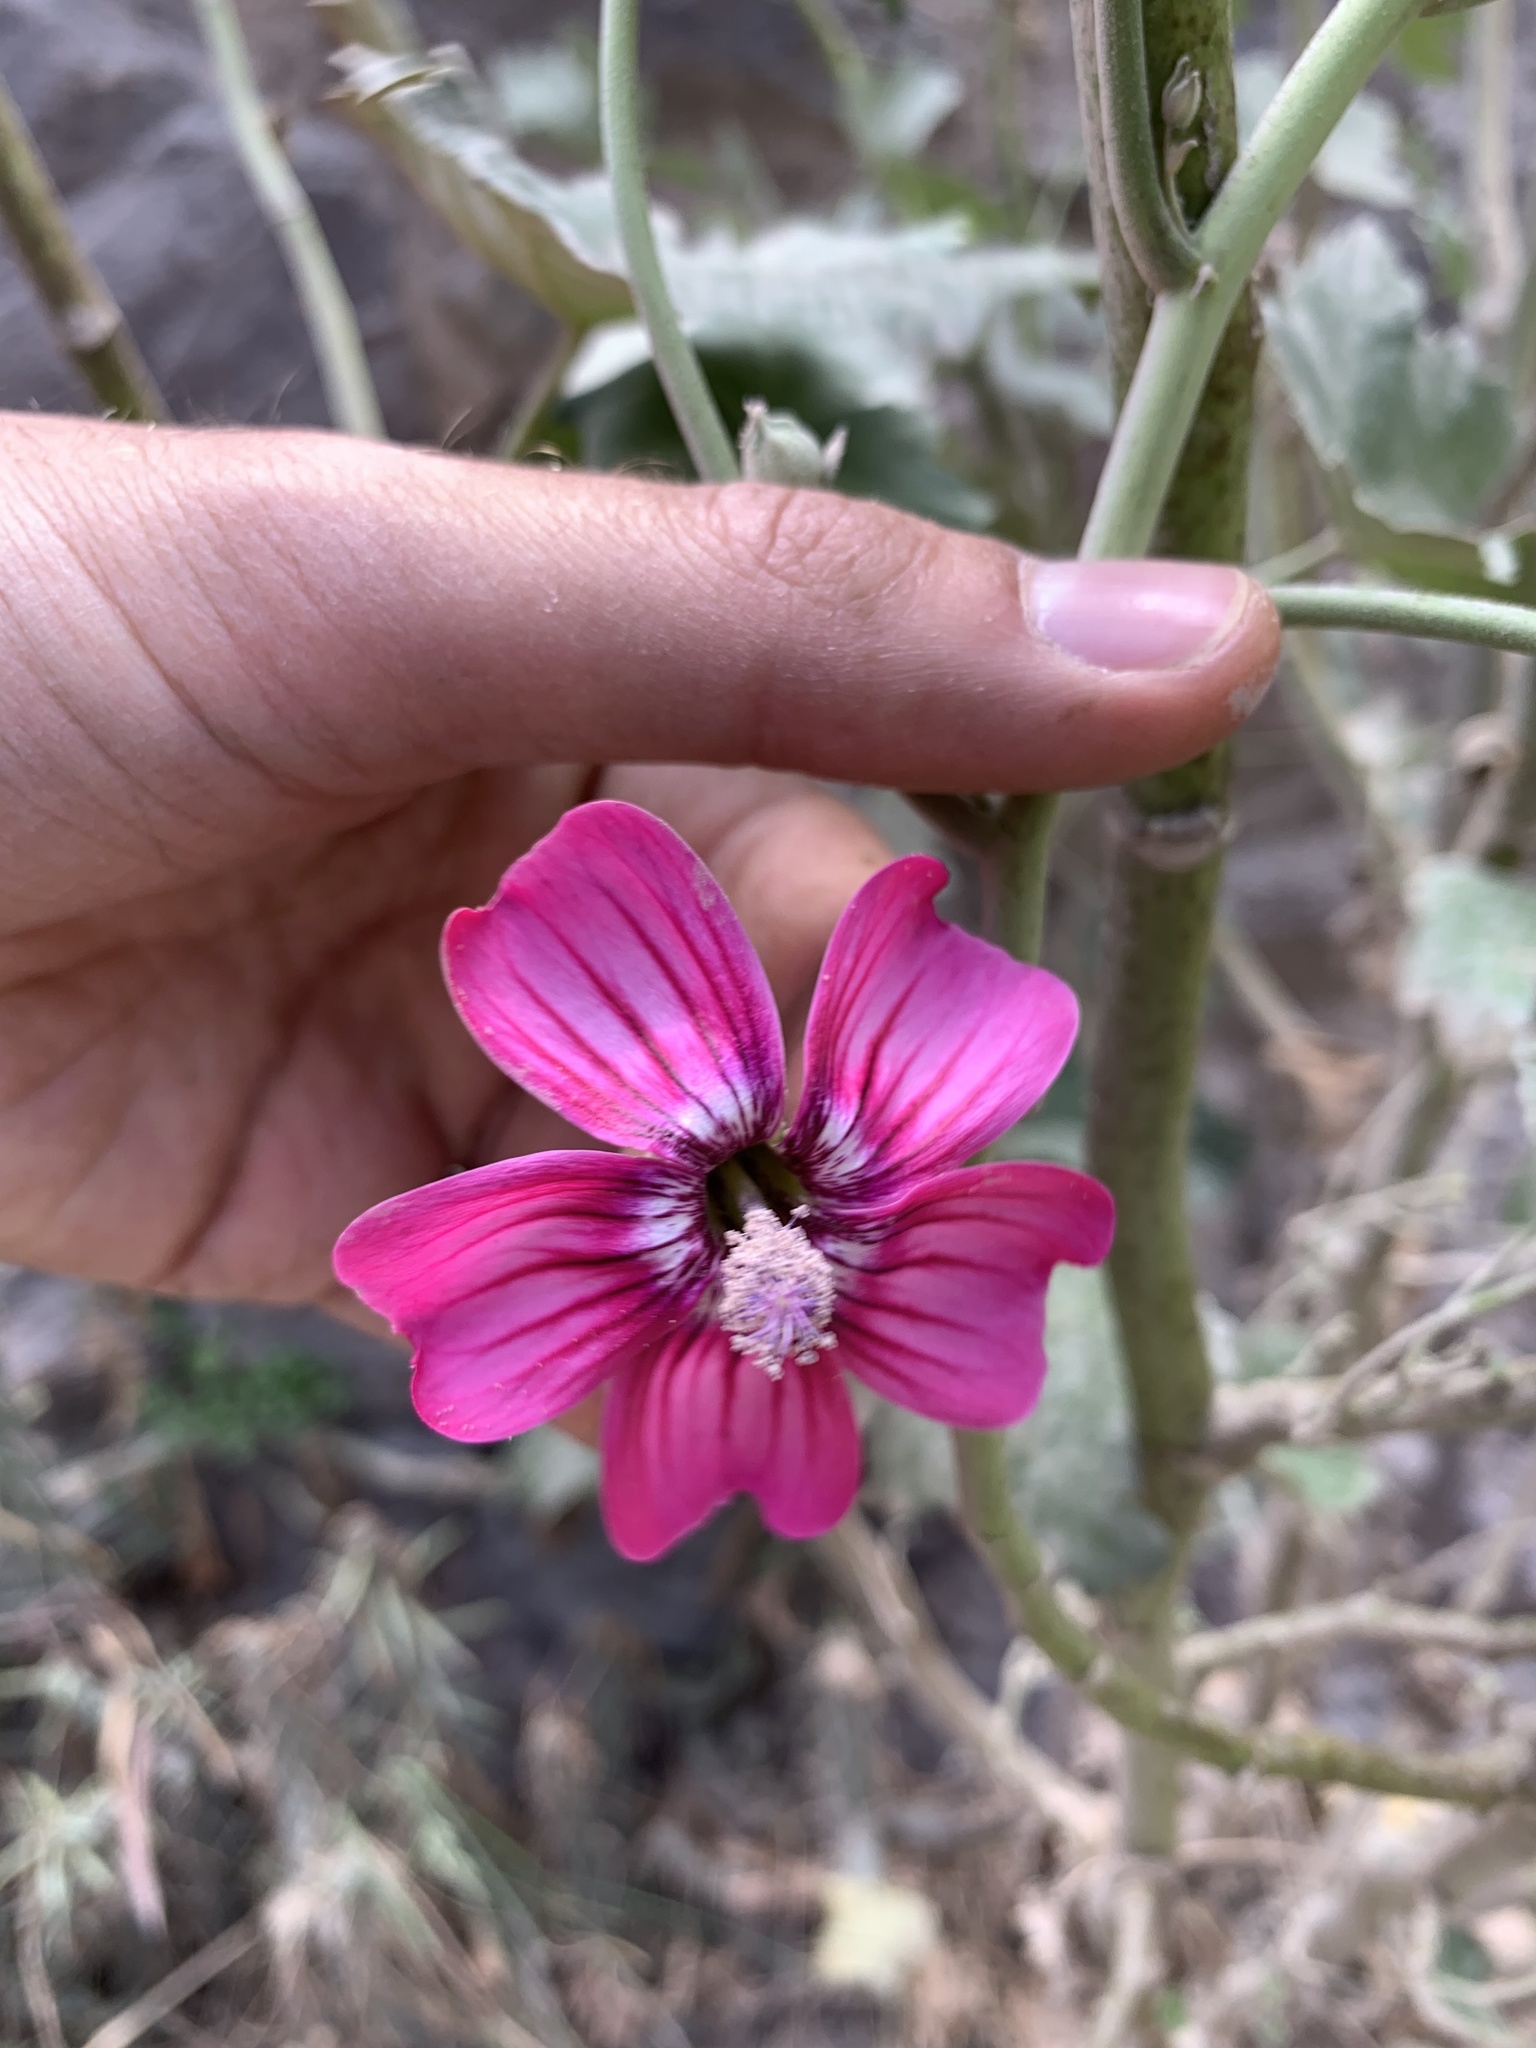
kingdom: Plantae
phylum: Tracheophyta
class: Magnoliopsida
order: Malvales
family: Malvaceae
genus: Malva
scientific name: Malva assurgentiflora
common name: Island mallow
